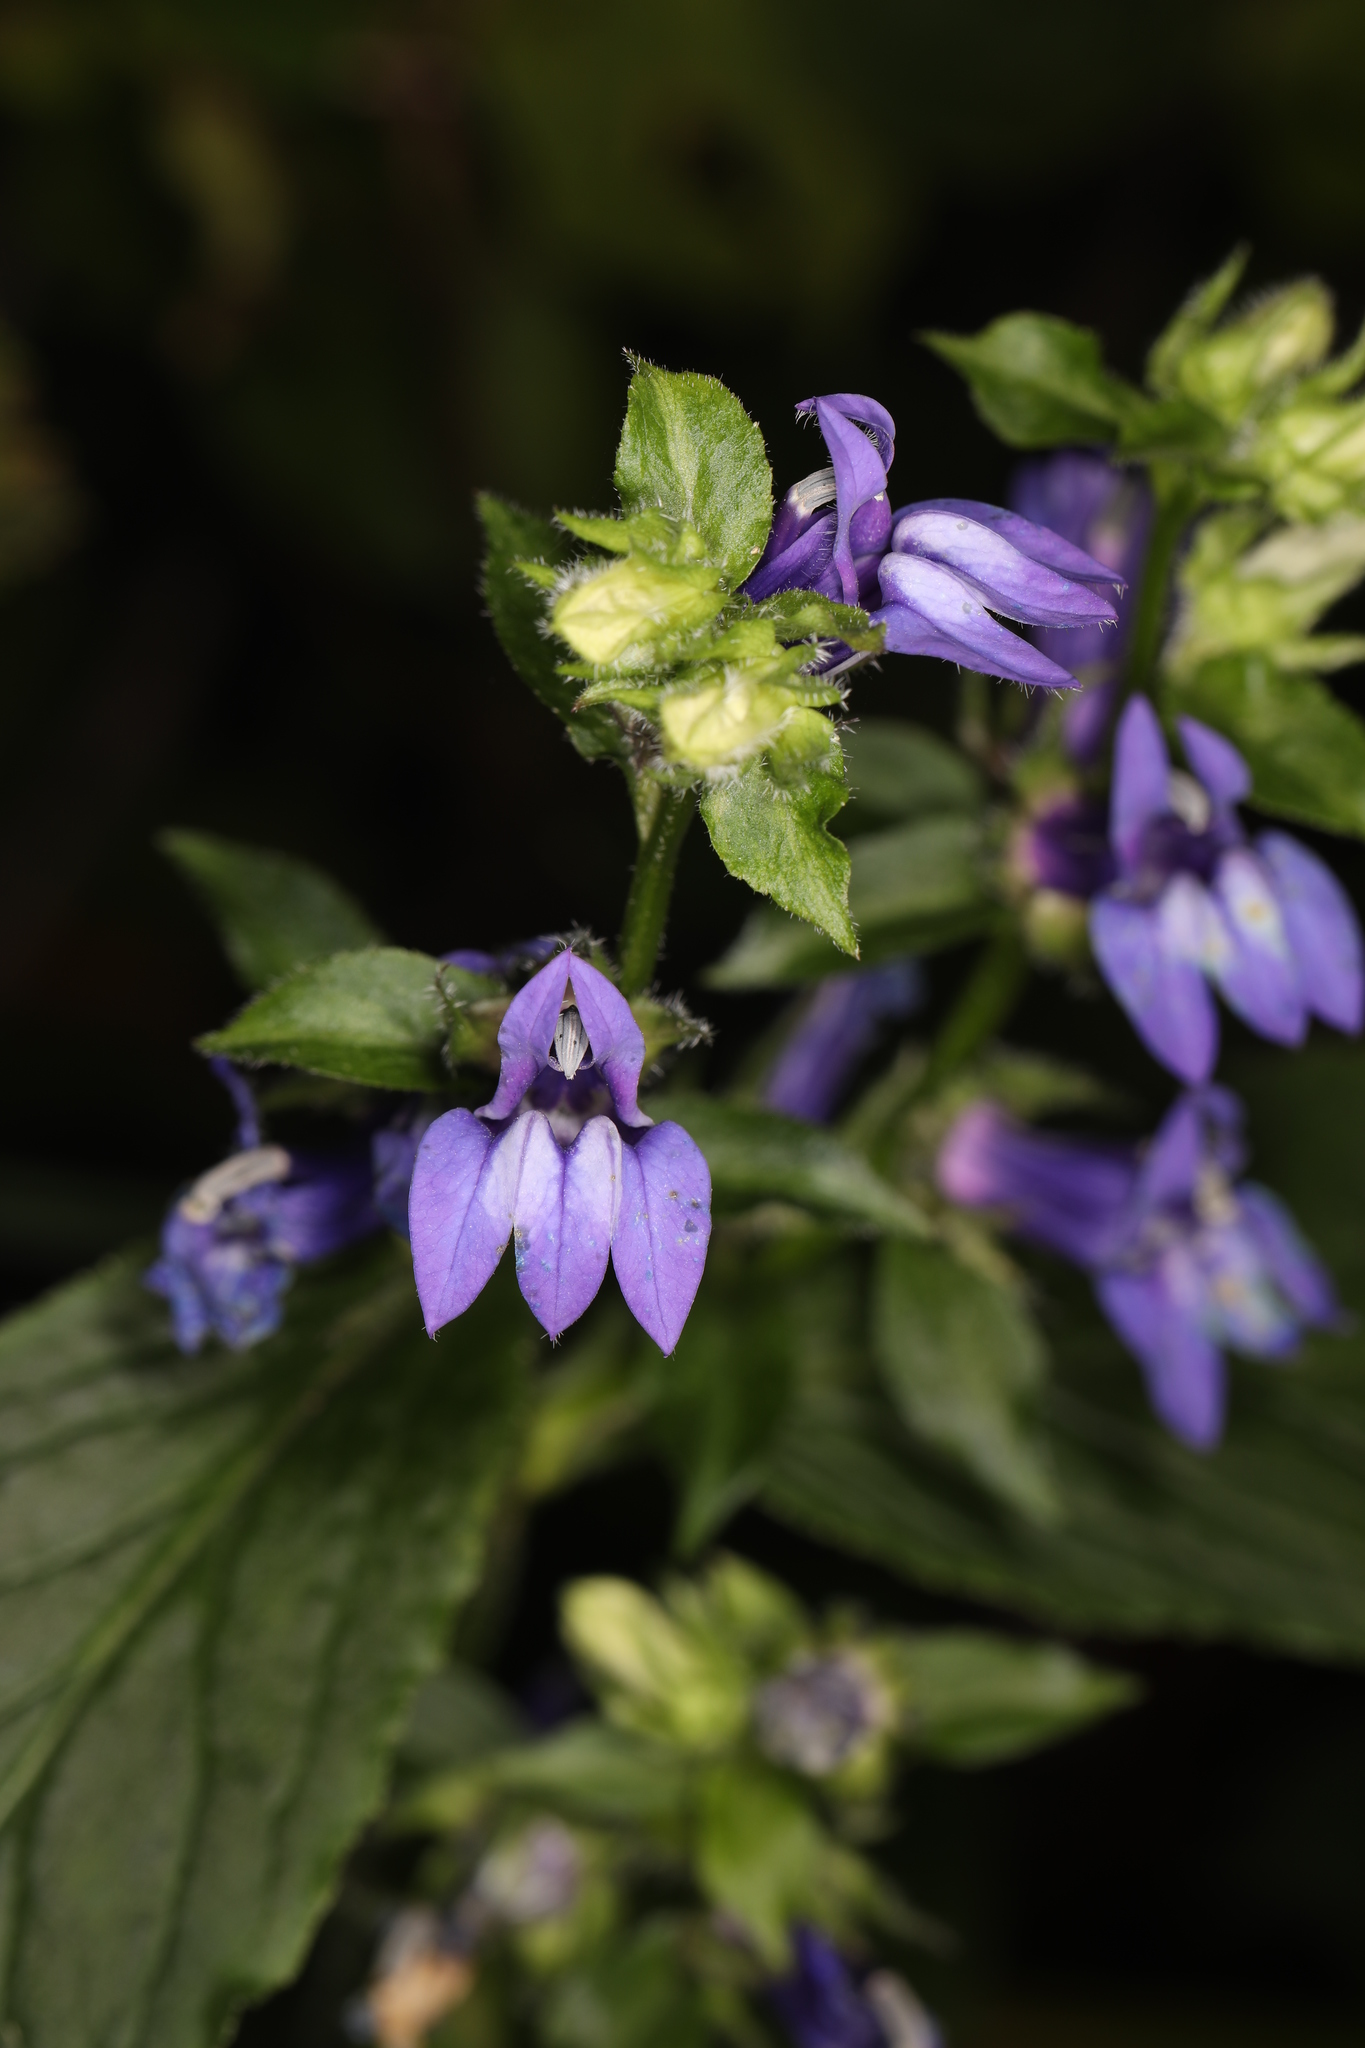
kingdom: Plantae
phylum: Tracheophyta
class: Magnoliopsida
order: Asterales
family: Campanulaceae
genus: Lobelia
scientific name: Lobelia siphilitica
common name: Great lobelia
